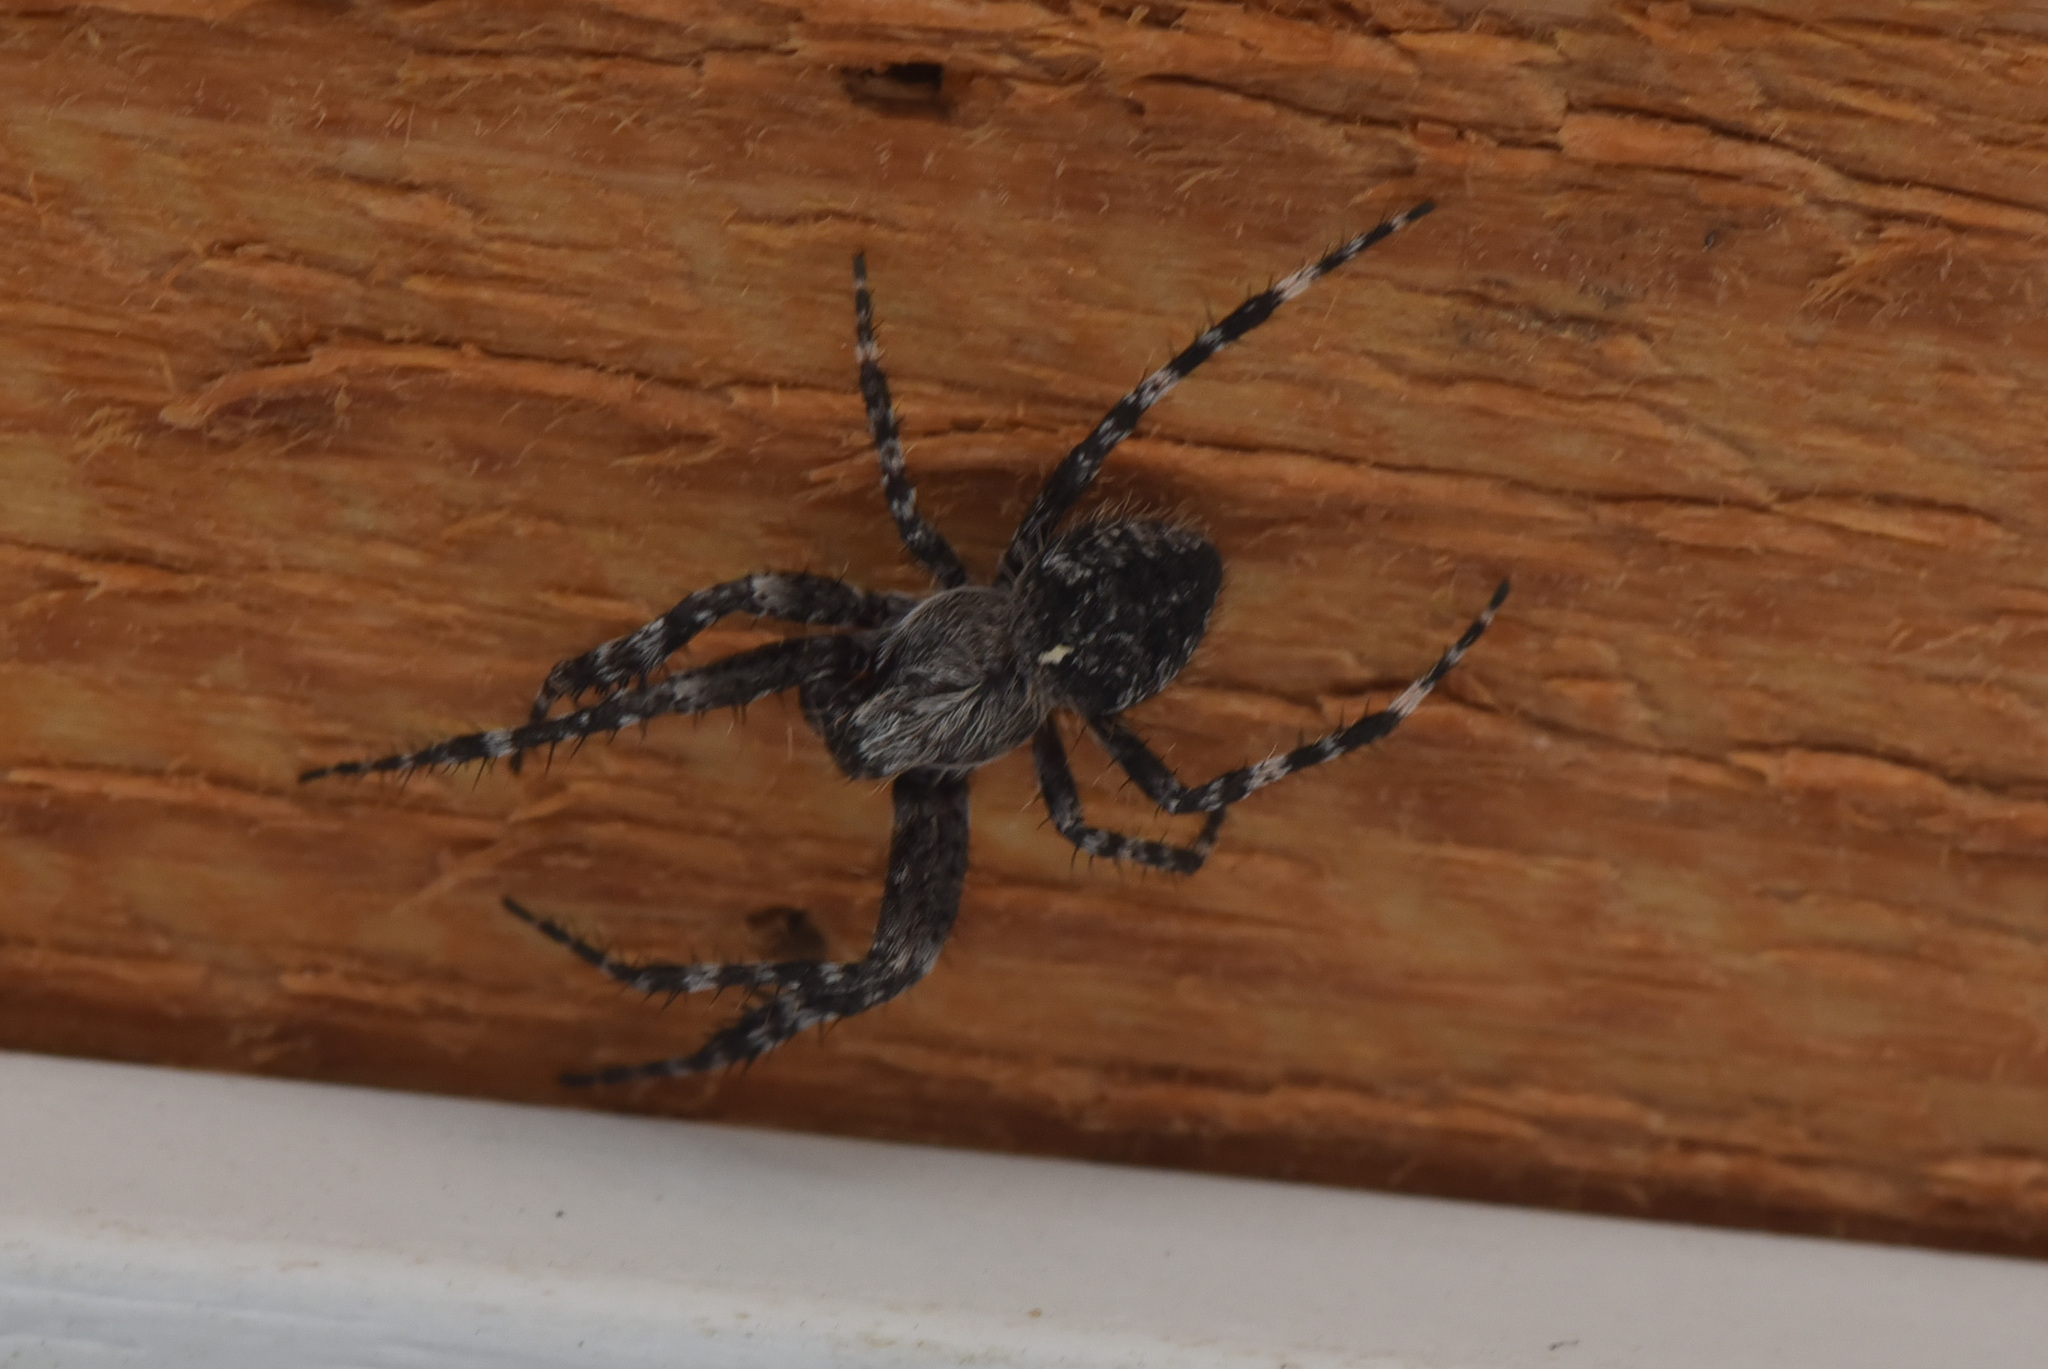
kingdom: Animalia
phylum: Arthropoda
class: Arachnida
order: Araneae
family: Araneidae
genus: Araneus
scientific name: Araneus saevus
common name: Fierce orbweaver
